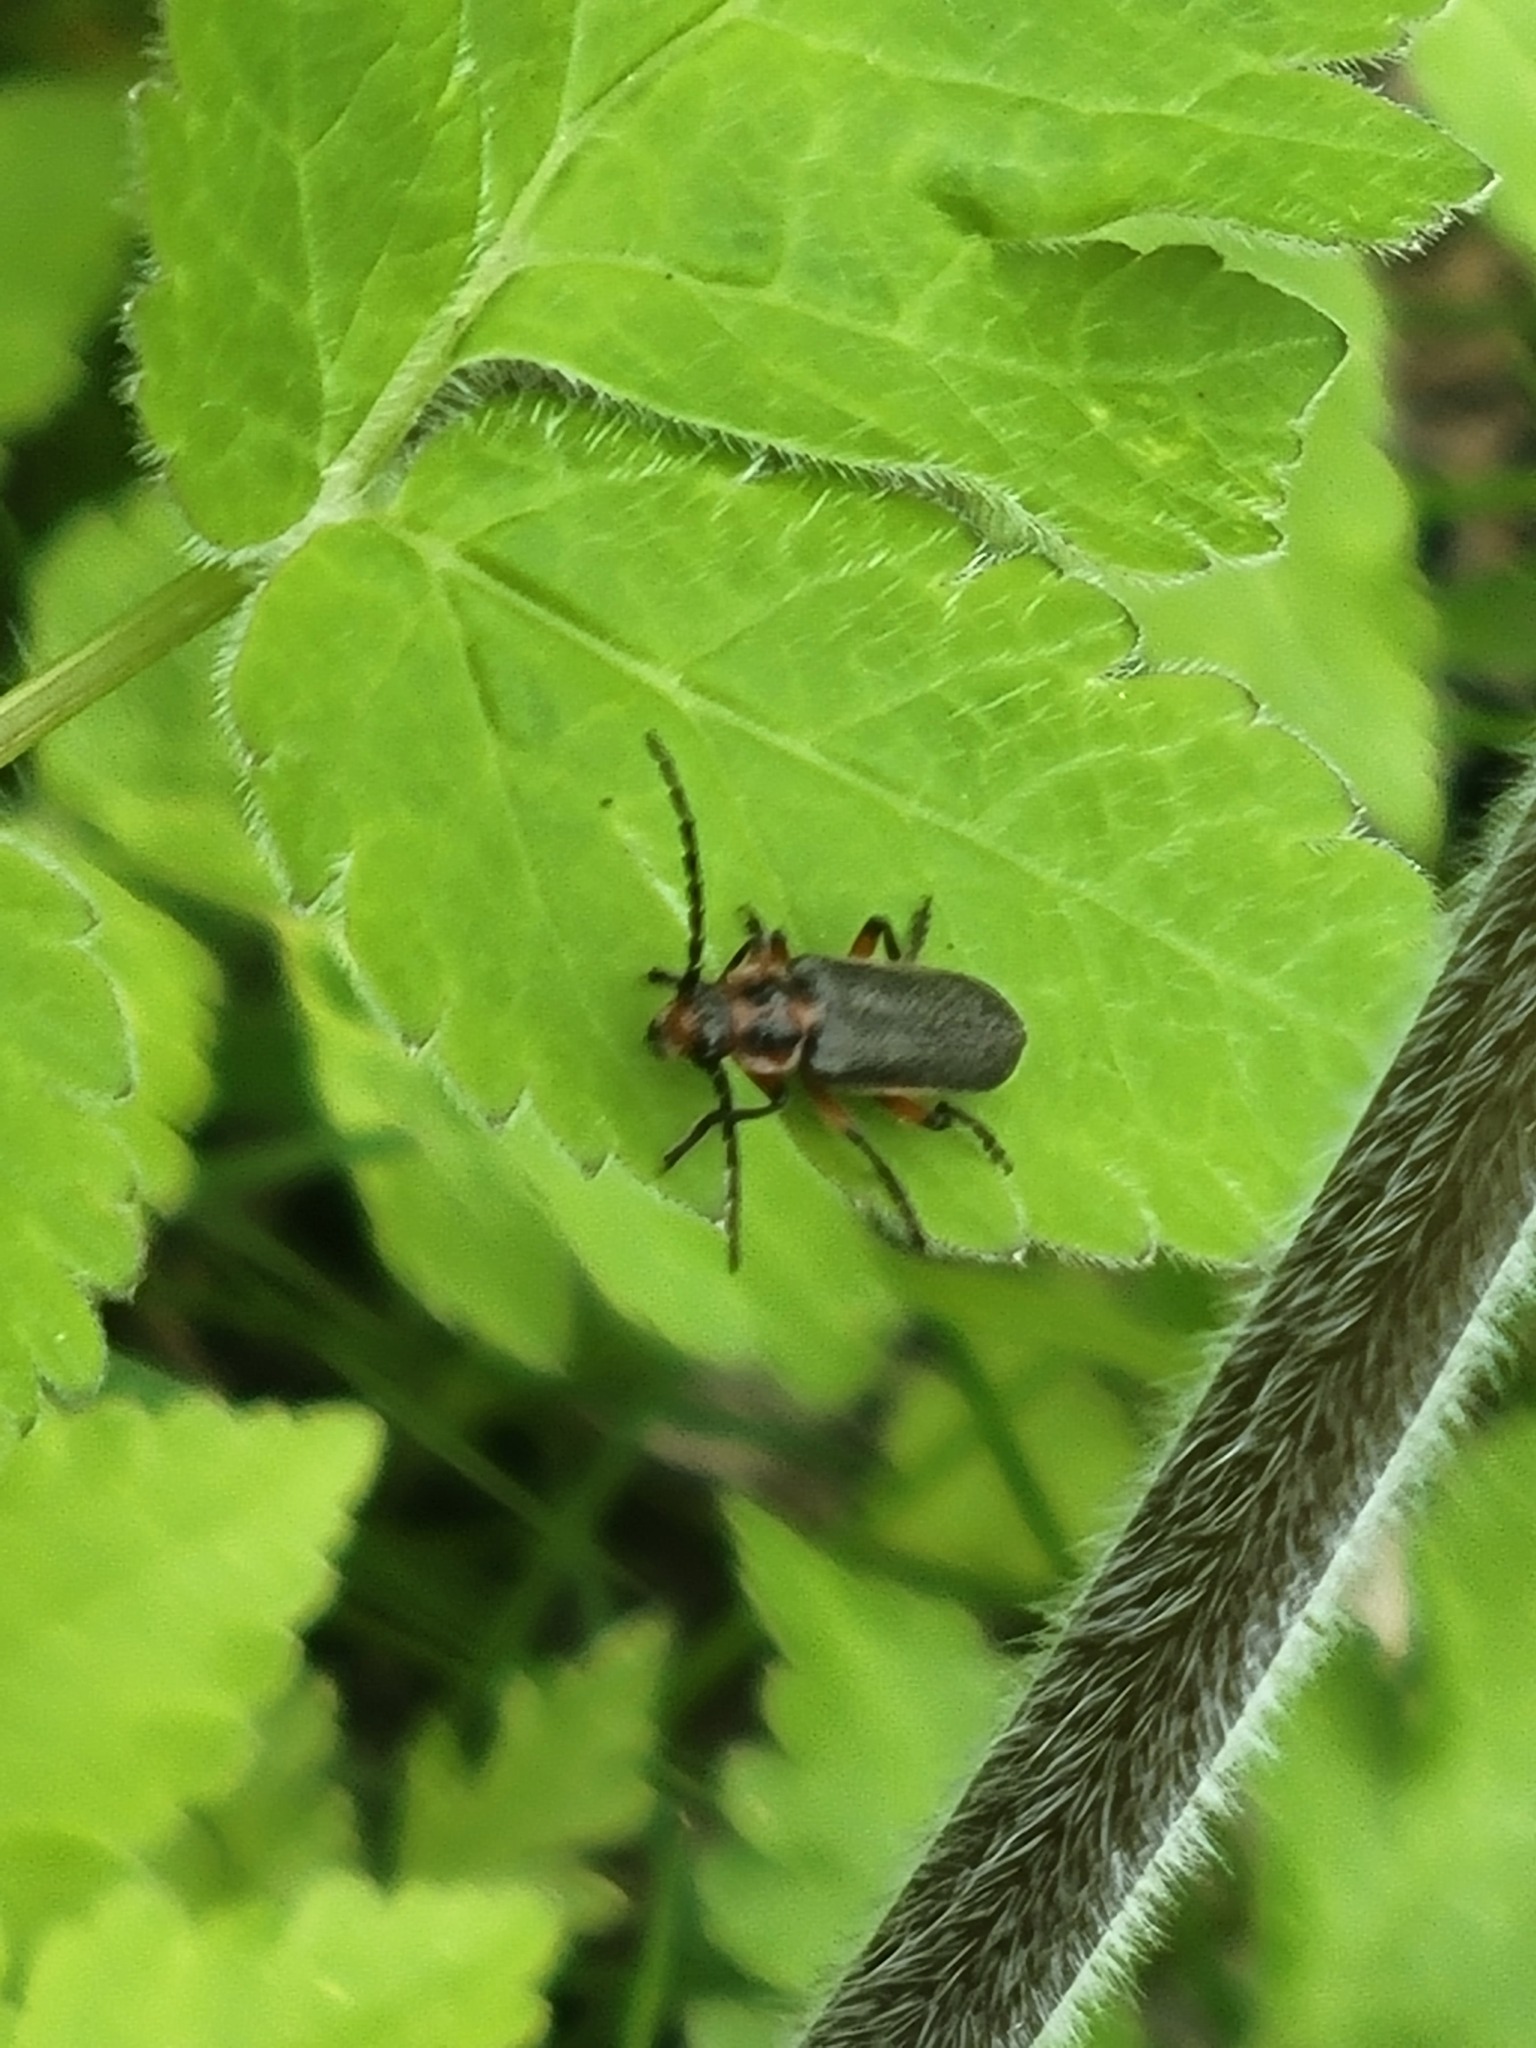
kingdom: Animalia
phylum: Arthropoda
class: Insecta
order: Coleoptera
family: Cantharidae
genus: Atalantycha
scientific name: Atalantycha bilineata
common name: Two-lined leatherwing
